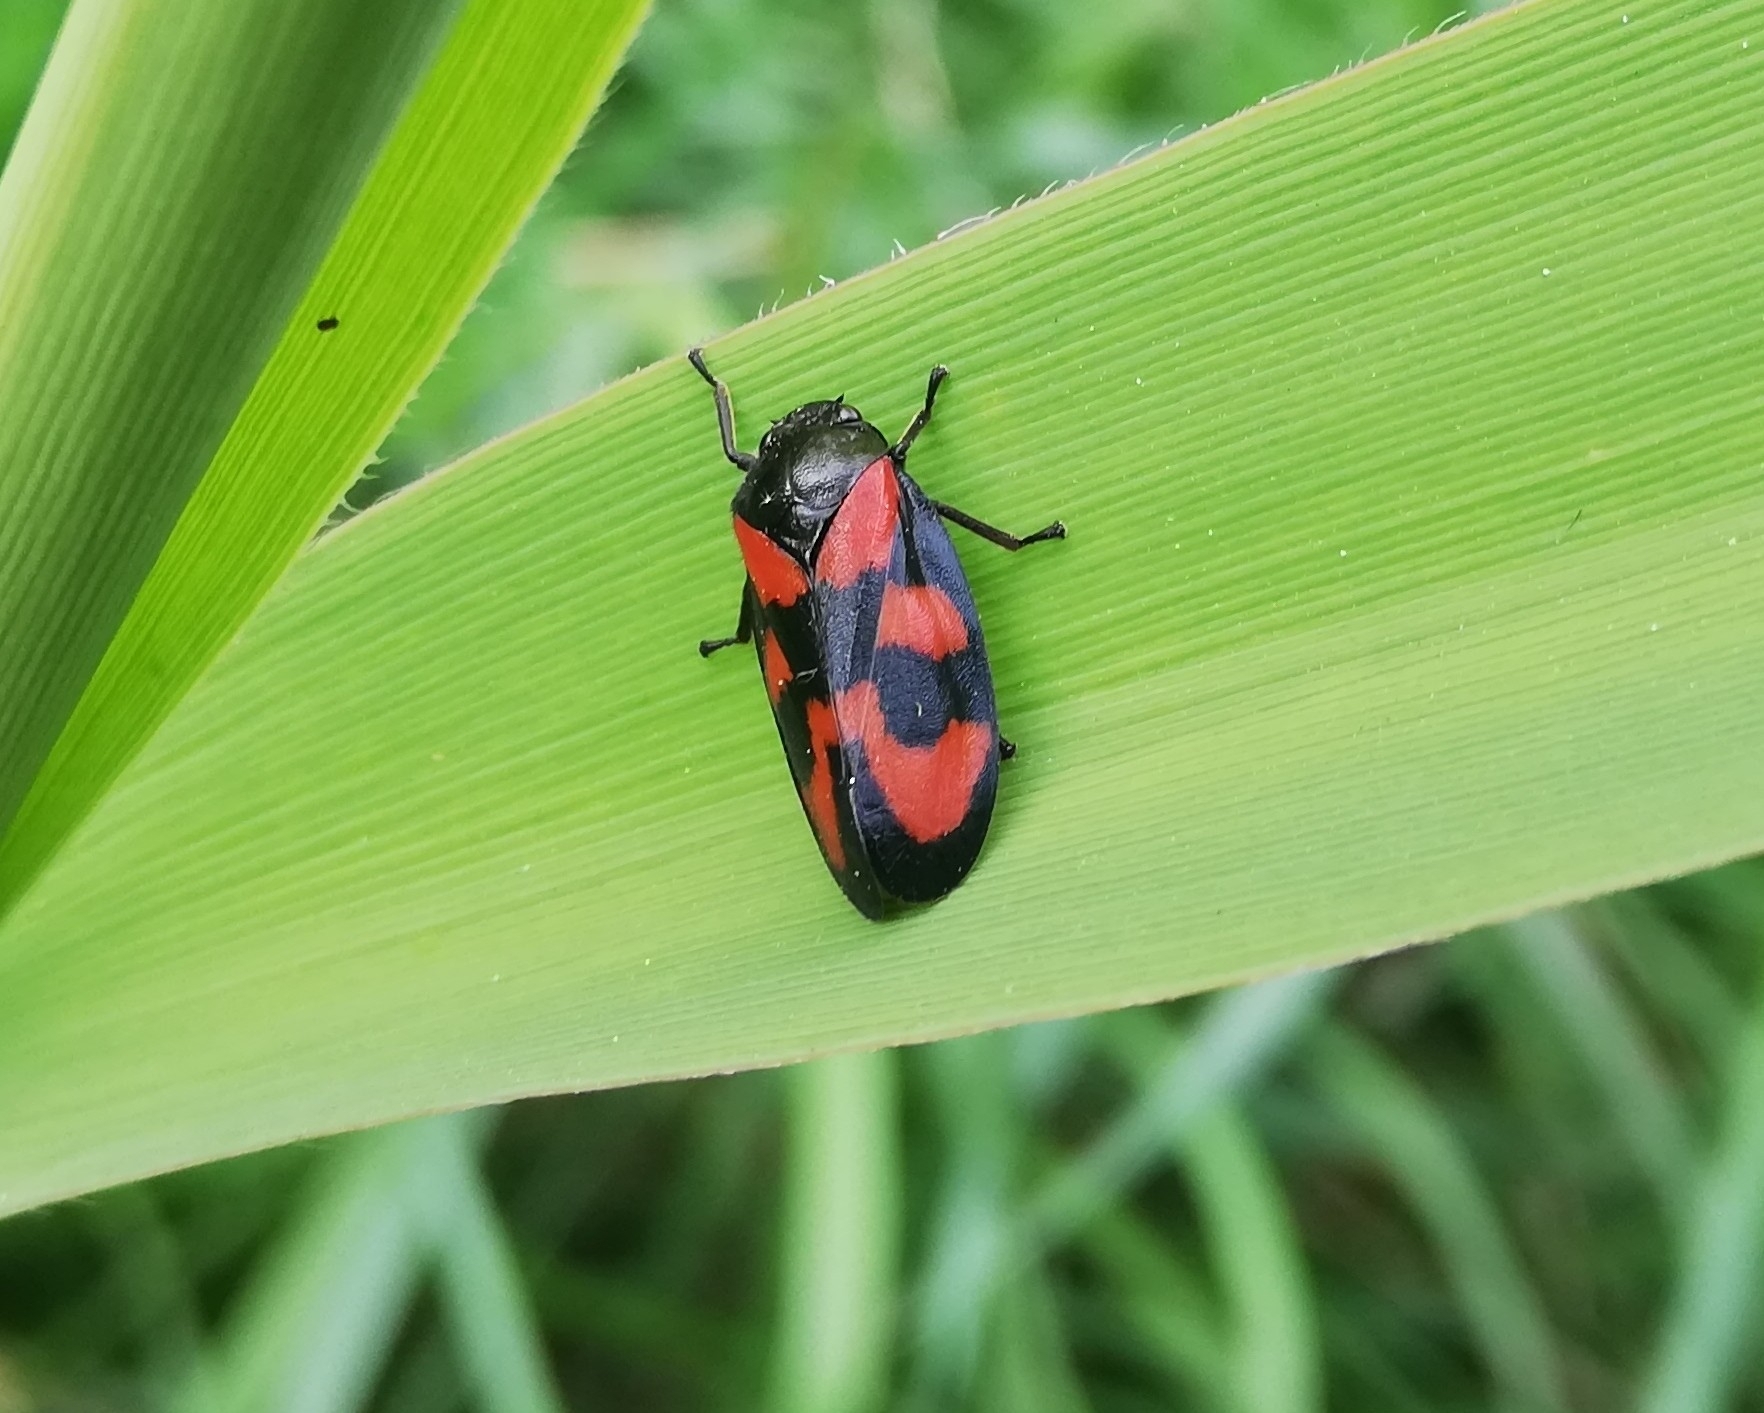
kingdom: Animalia
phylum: Arthropoda
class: Insecta
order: Hemiptera
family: Cercopidae
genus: Cercopis
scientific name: Cercopis vulnerata
